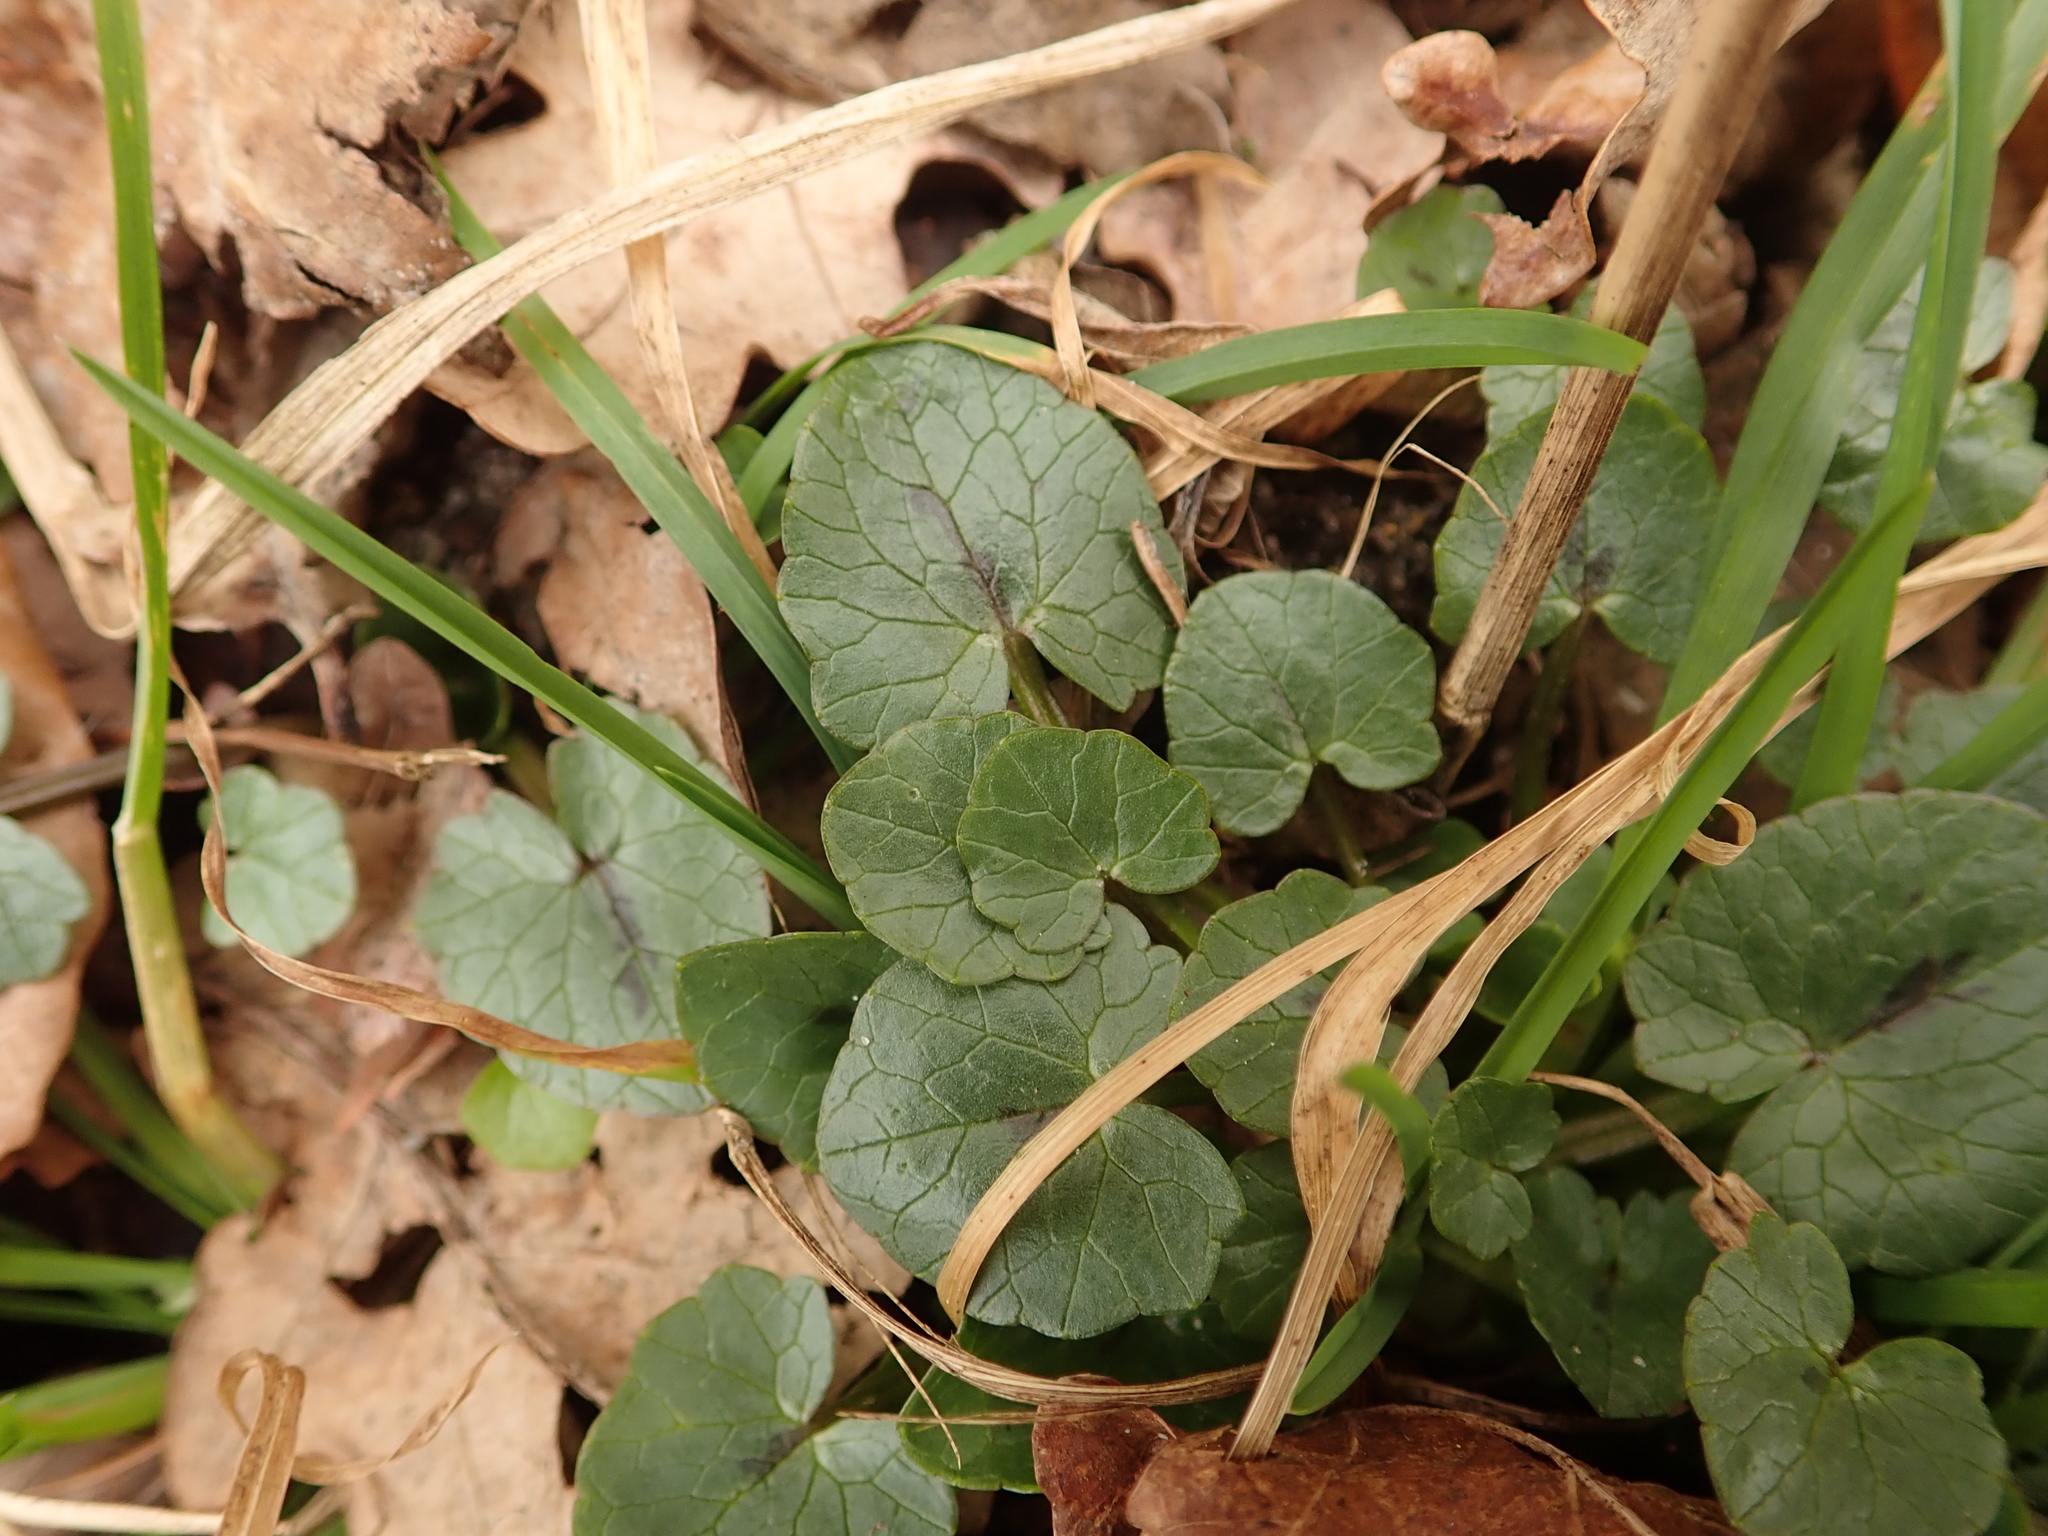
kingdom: Plantae
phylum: Tracheophyta
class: Magnoliopsida
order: Ranunculales
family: Ranunculaceae
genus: Ficaria
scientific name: Ficaria verna
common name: Lesser celandine
